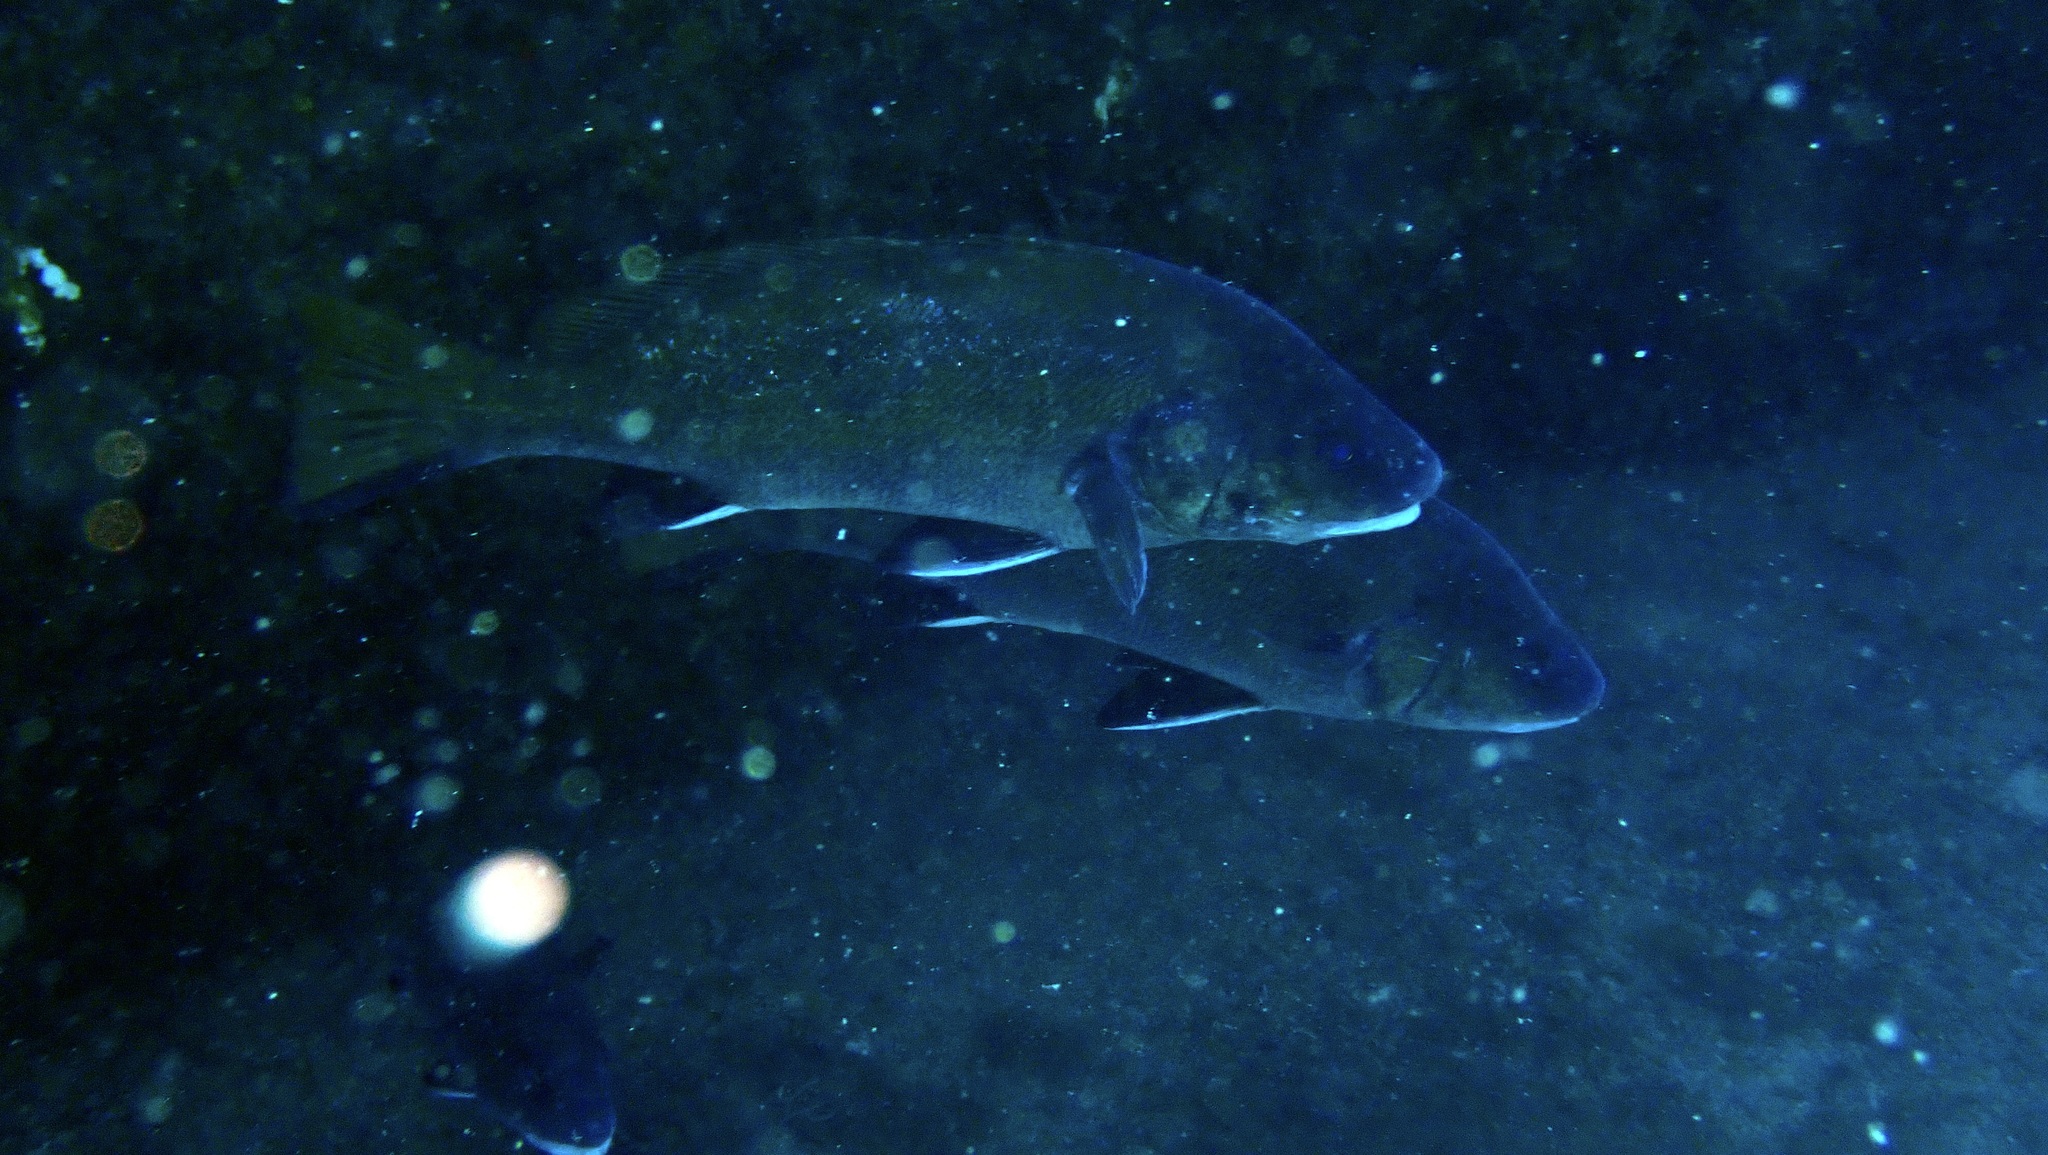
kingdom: Animalia
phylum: Chordata
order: Perciformes
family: Sciaenidae
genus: Sciaena
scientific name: Sciaena umbra
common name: Brown meagre
